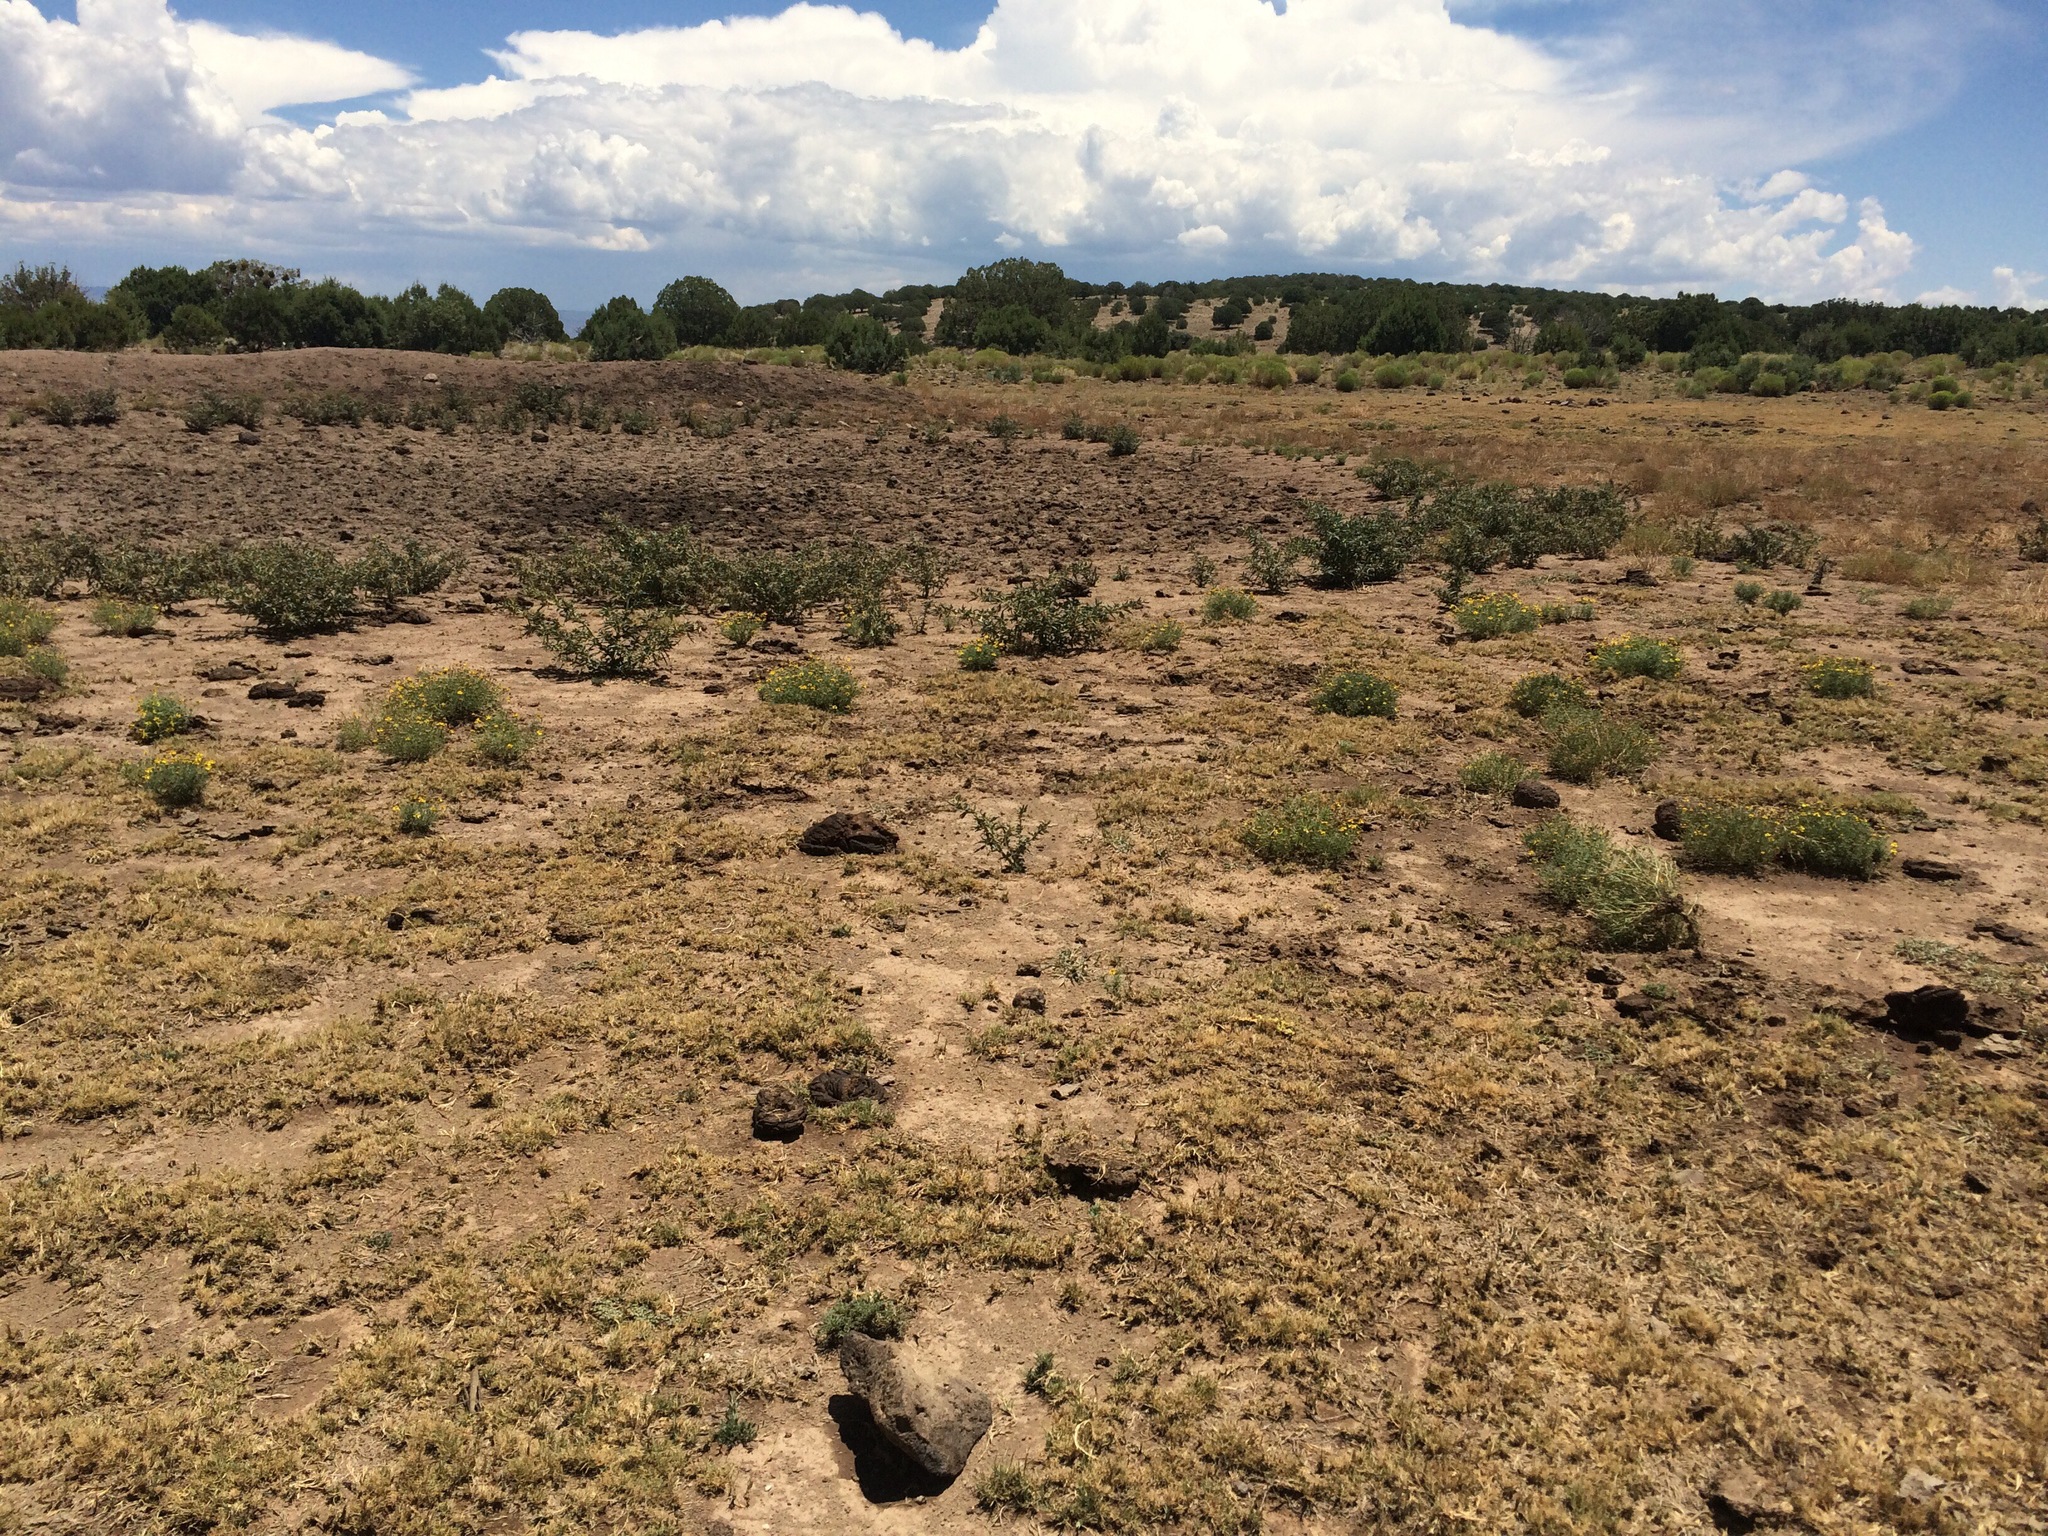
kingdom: Plantae
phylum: Tracheophyta
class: Magnoliopsida
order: Asterales
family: Asteraceae
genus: Xanthium
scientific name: Xanthium spinosum
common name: Spiny cocklebur
